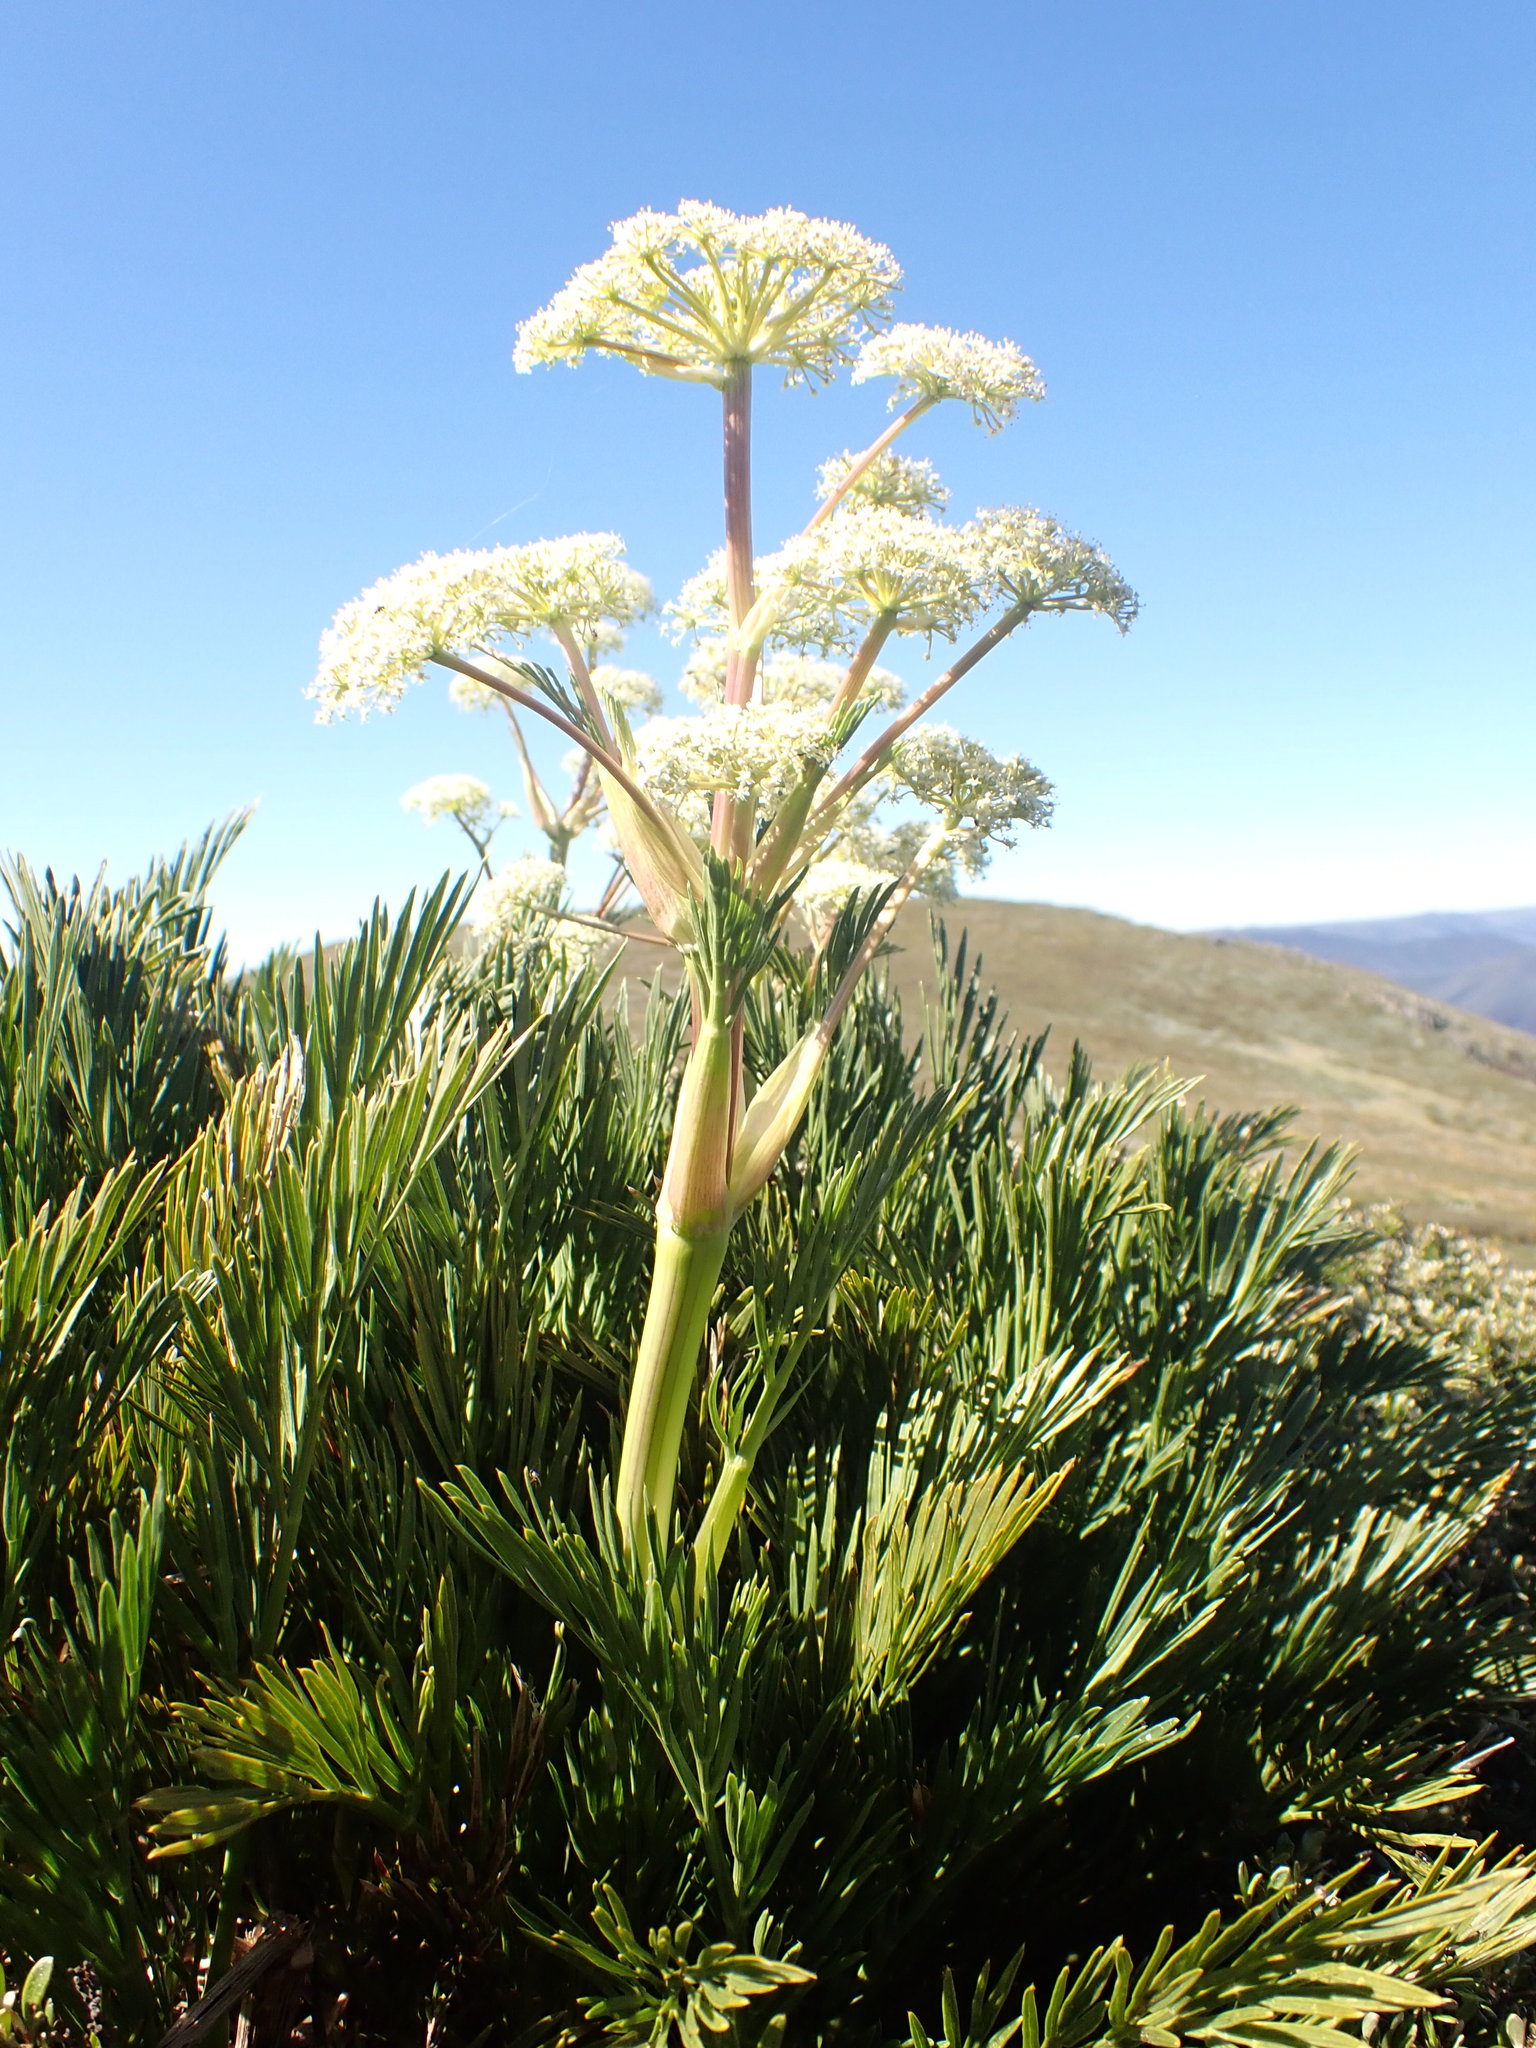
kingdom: Plantae
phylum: Tracheophyta
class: Magnoliopsida
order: Apiales
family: Apiaceae
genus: Aciphylla
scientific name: Aciphylla glacialis
